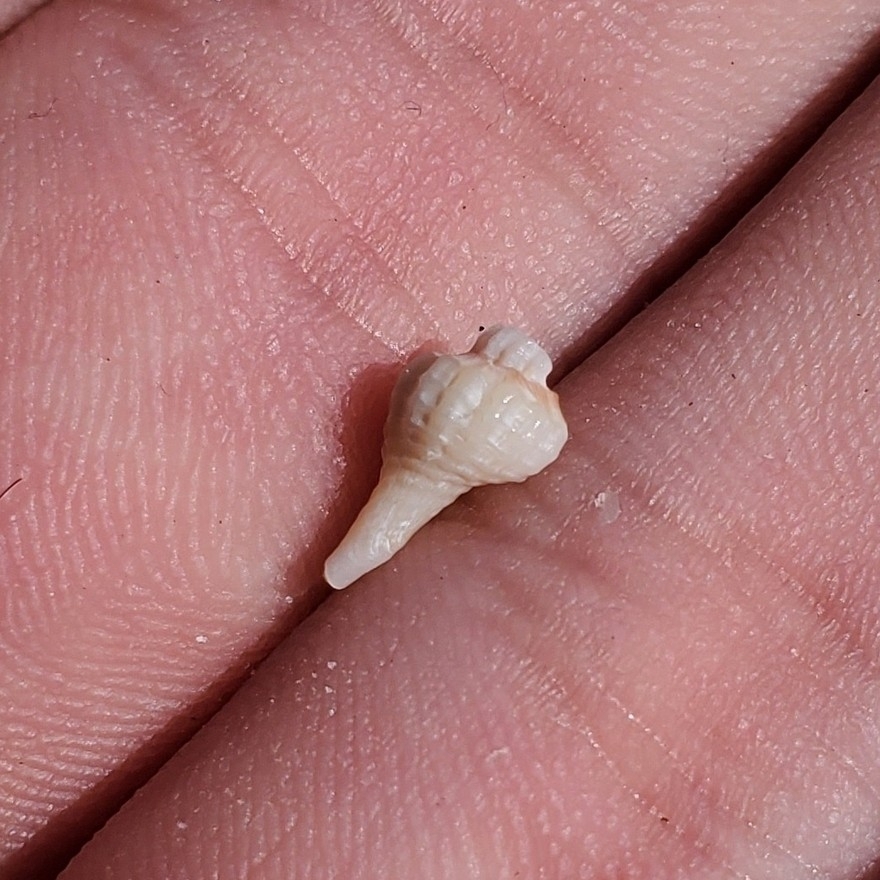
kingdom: Animalia
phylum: Mollusca
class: Gastropoda
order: Neogastropoda
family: Muricidae
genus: Eupleura
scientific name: Eupleura caudata
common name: Thick-lip drill
